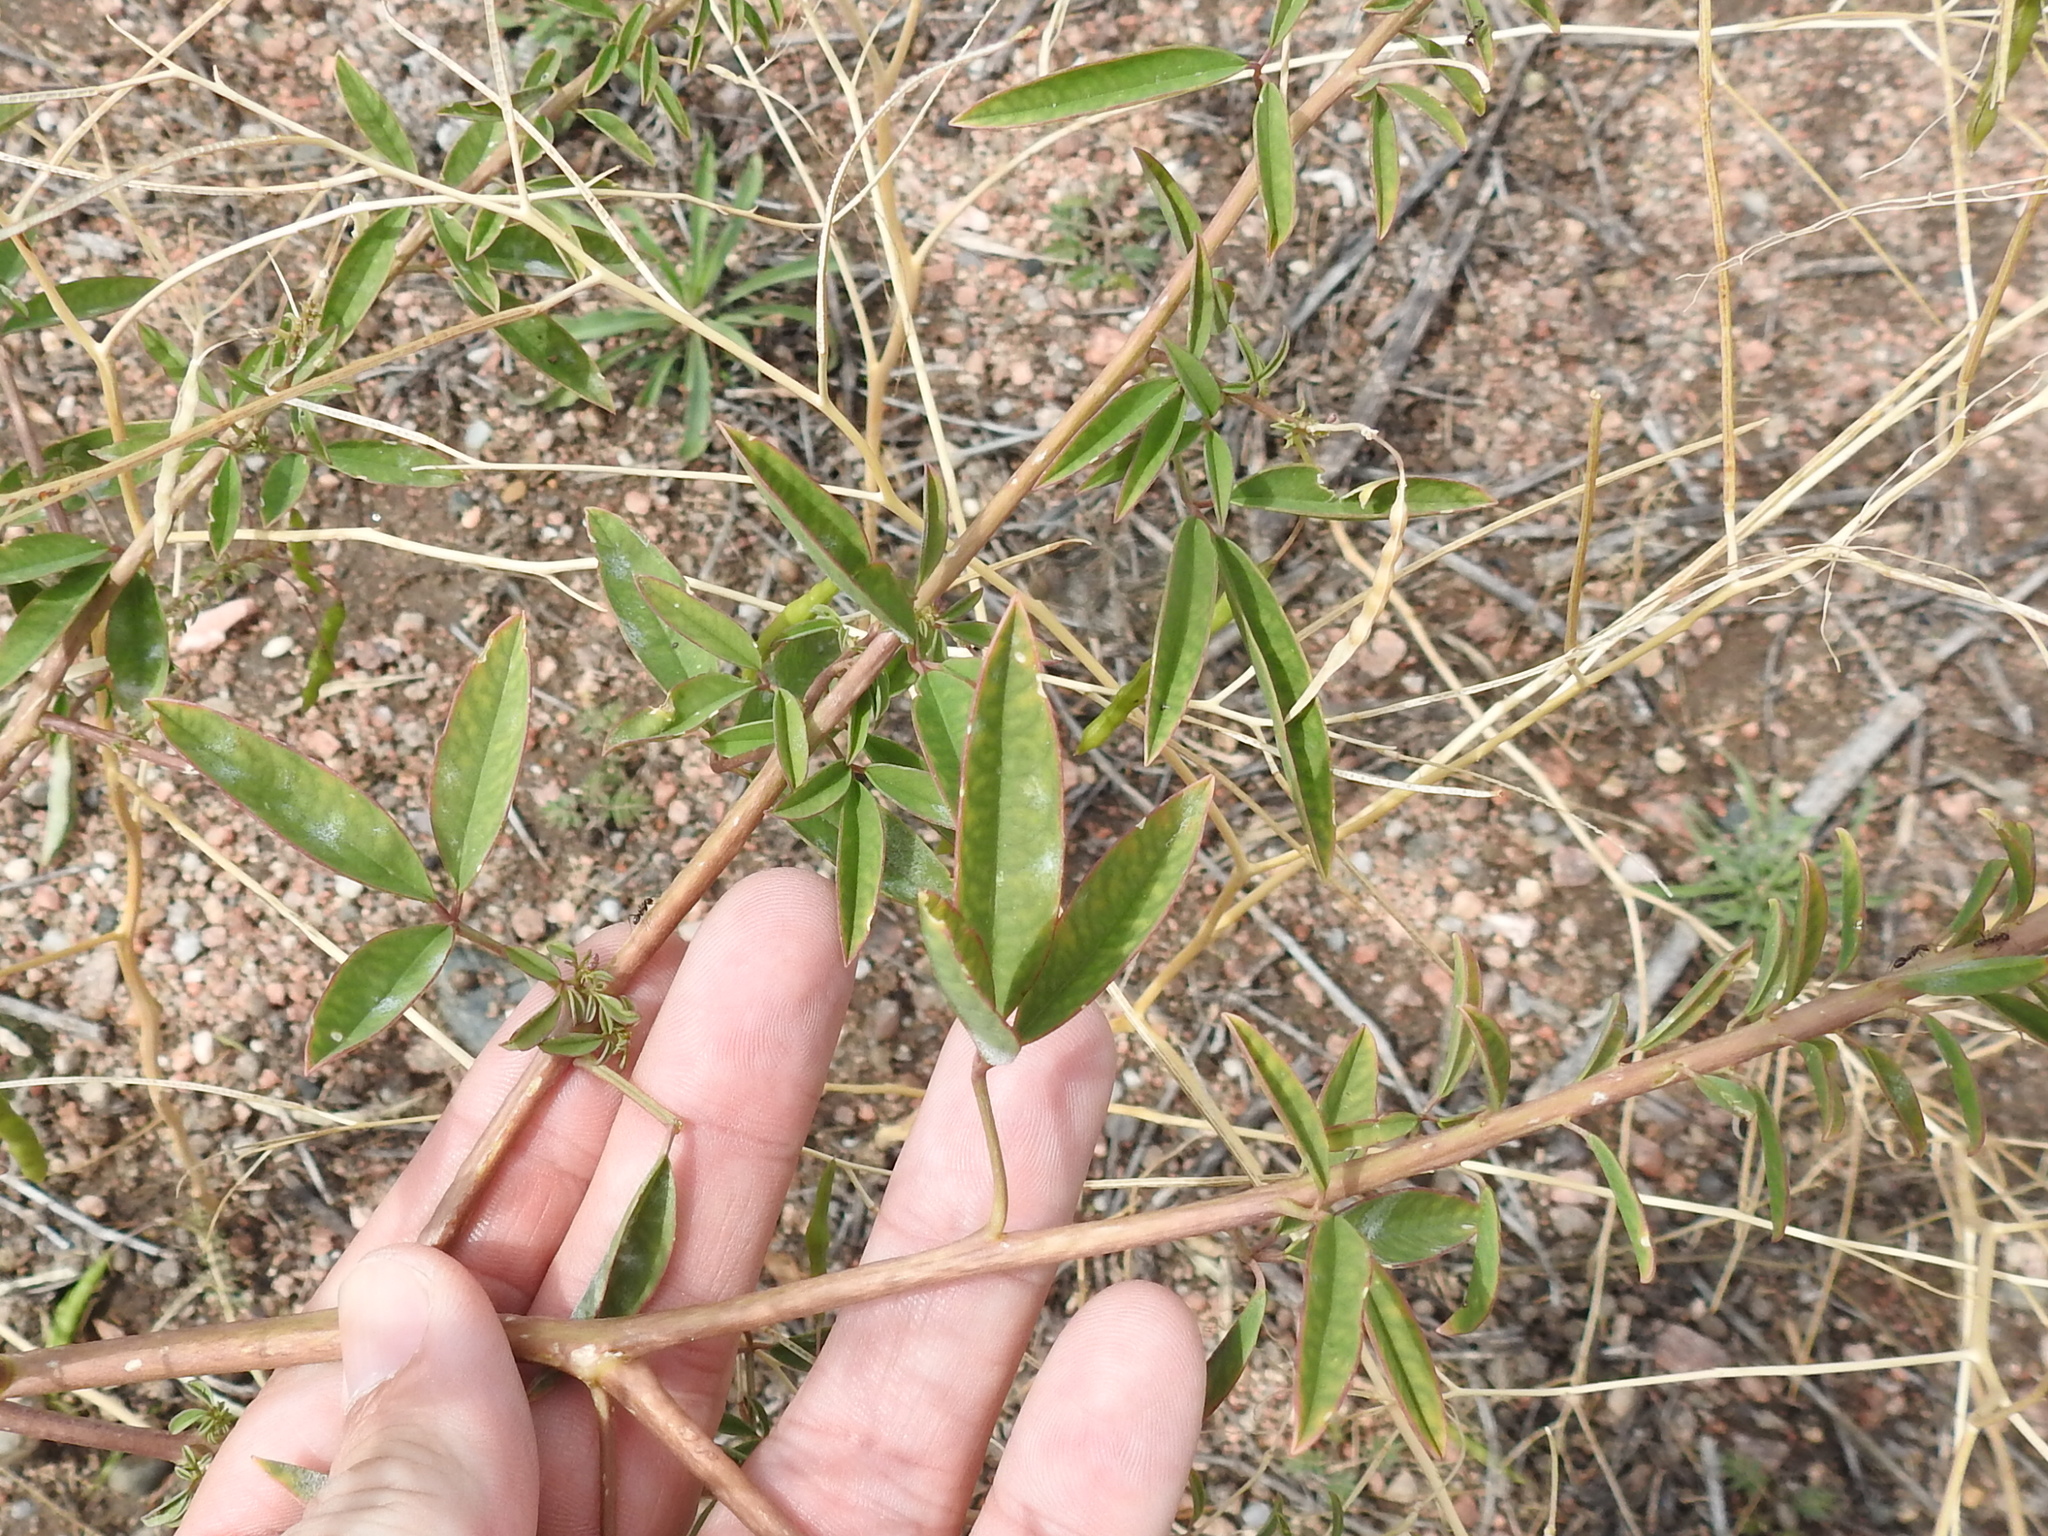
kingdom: Plantae
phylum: Tracheophyta
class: Magnoliopsida
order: Brassicales
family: Cleomaceae
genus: Cleomella
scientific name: Cleomella serrulata
